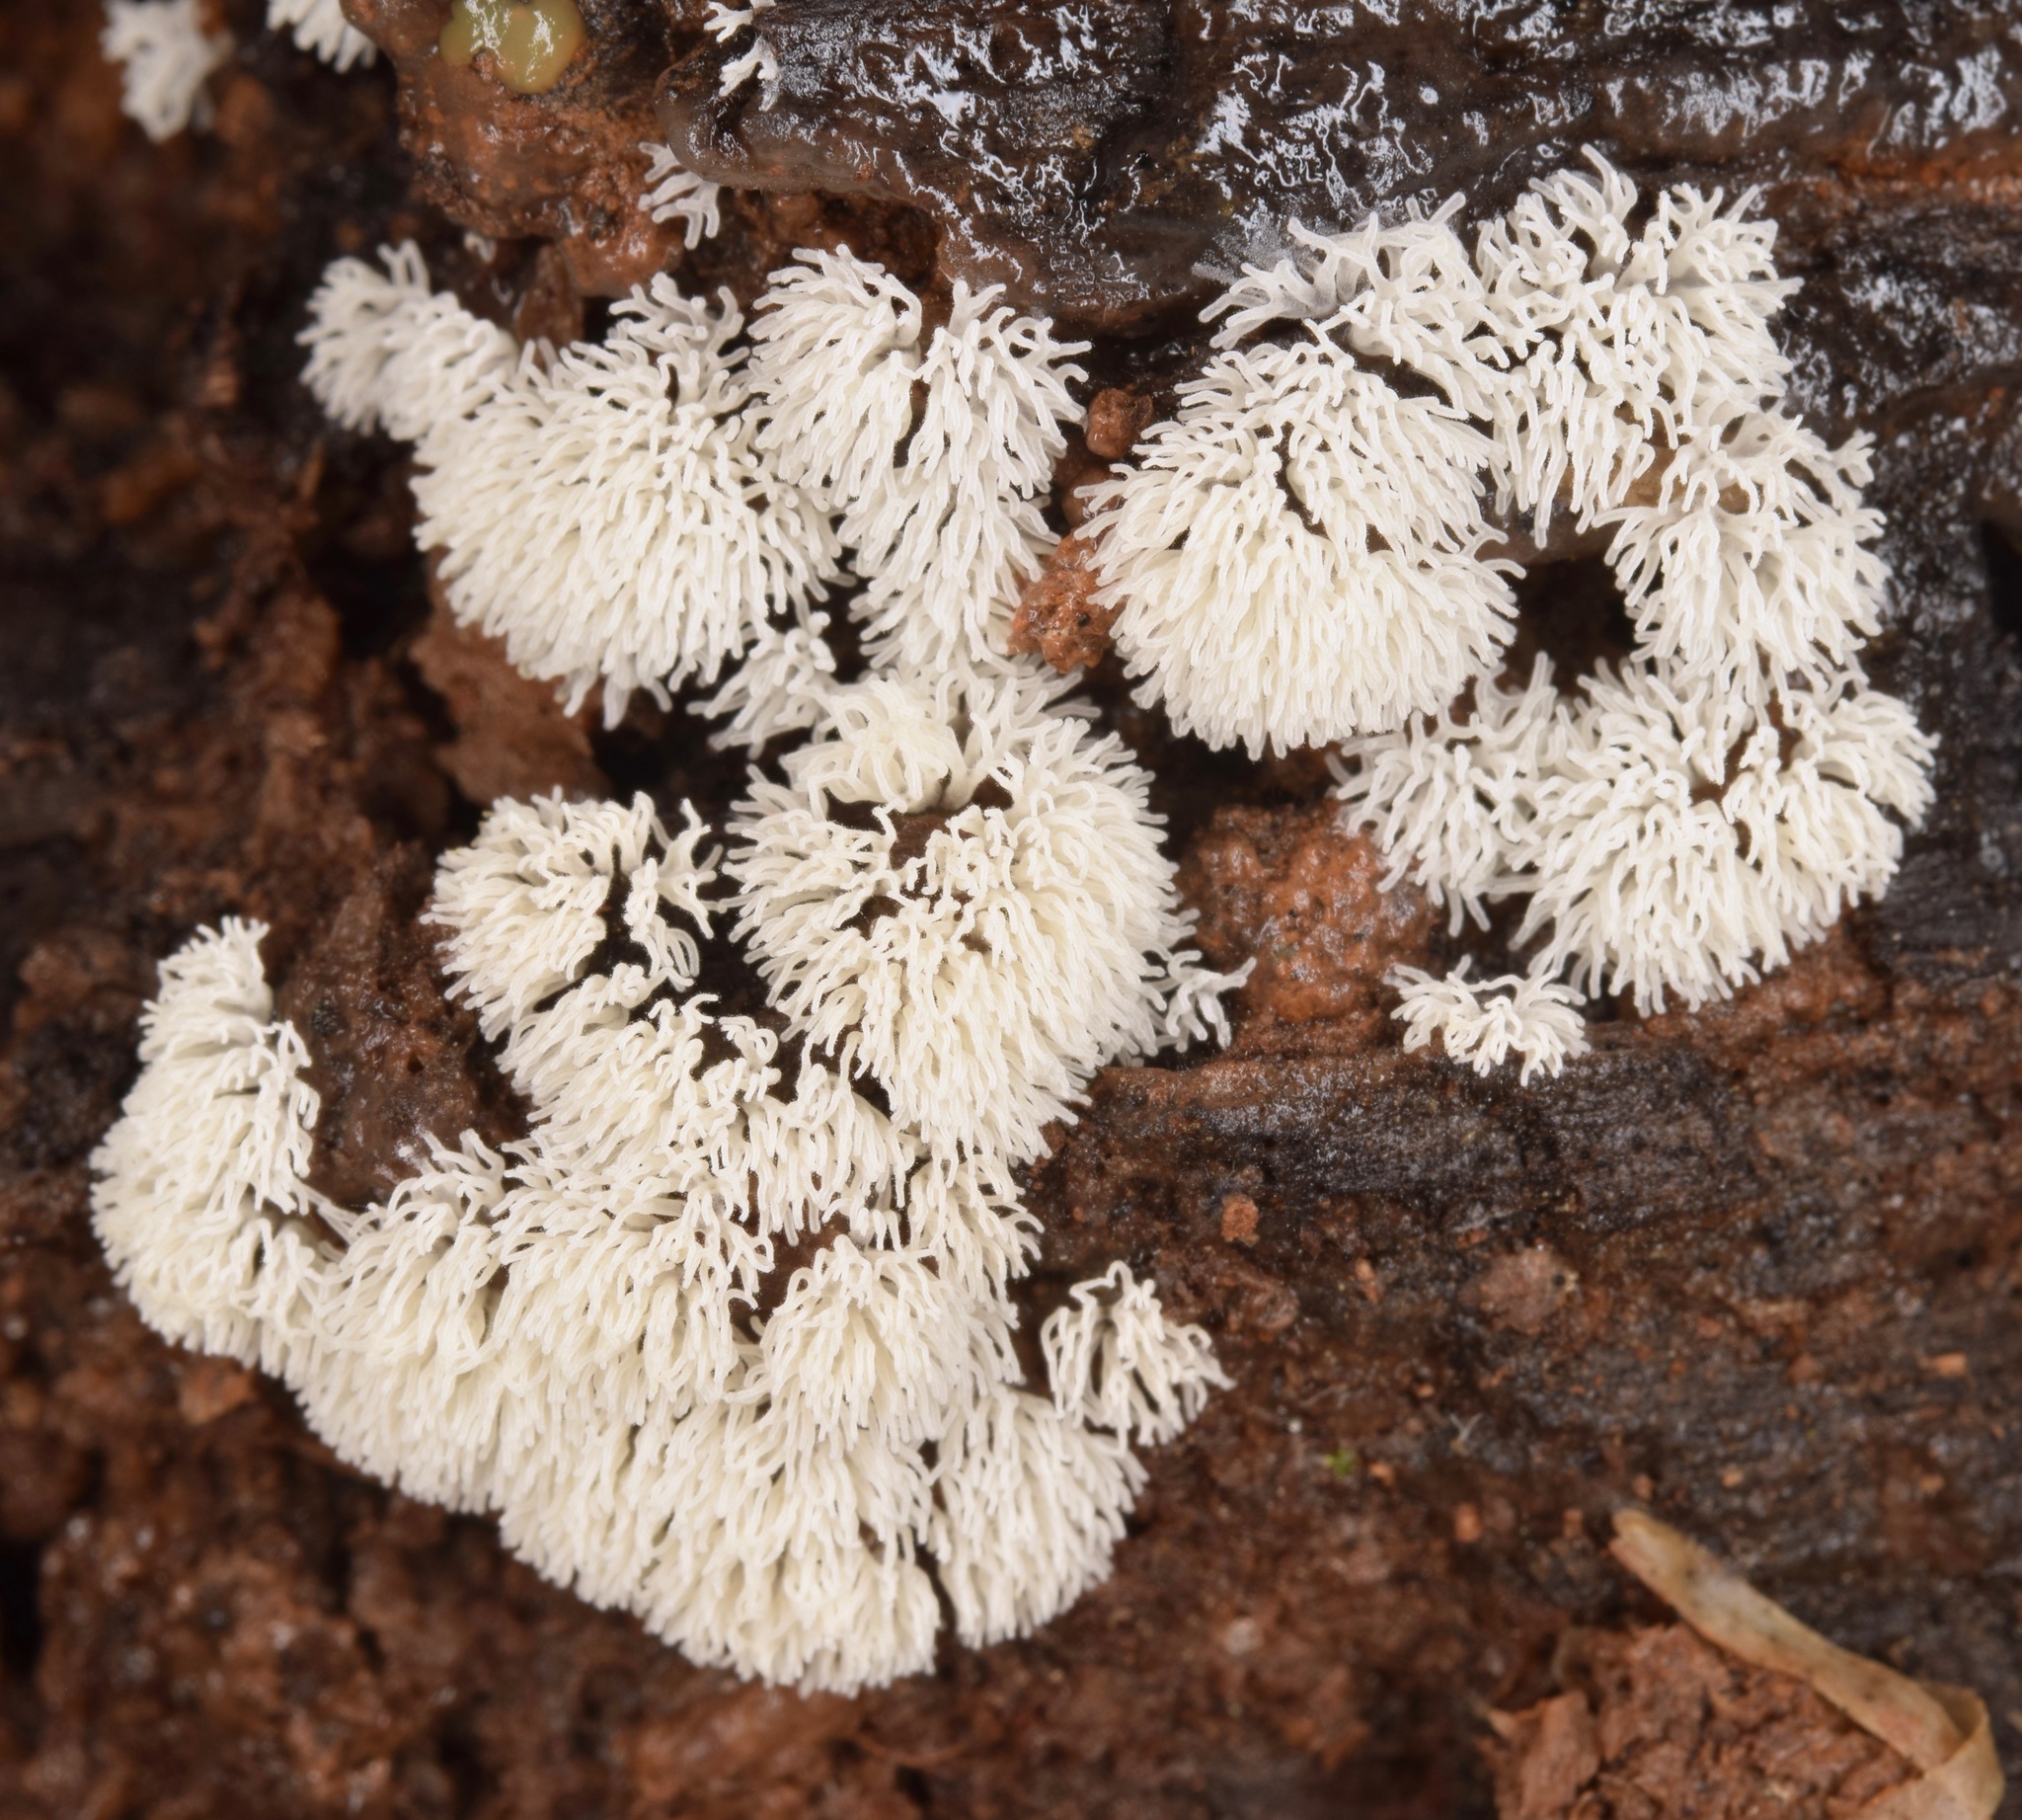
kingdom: Protozoa
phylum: Mycetozoa
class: Protosteliomycetes
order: Ceratiomyxales
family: Ceratiomyxaceae
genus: Ceratiomyxa
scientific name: Ceratiomyxa fruticulosa
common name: Honeycomb coral slime mold
